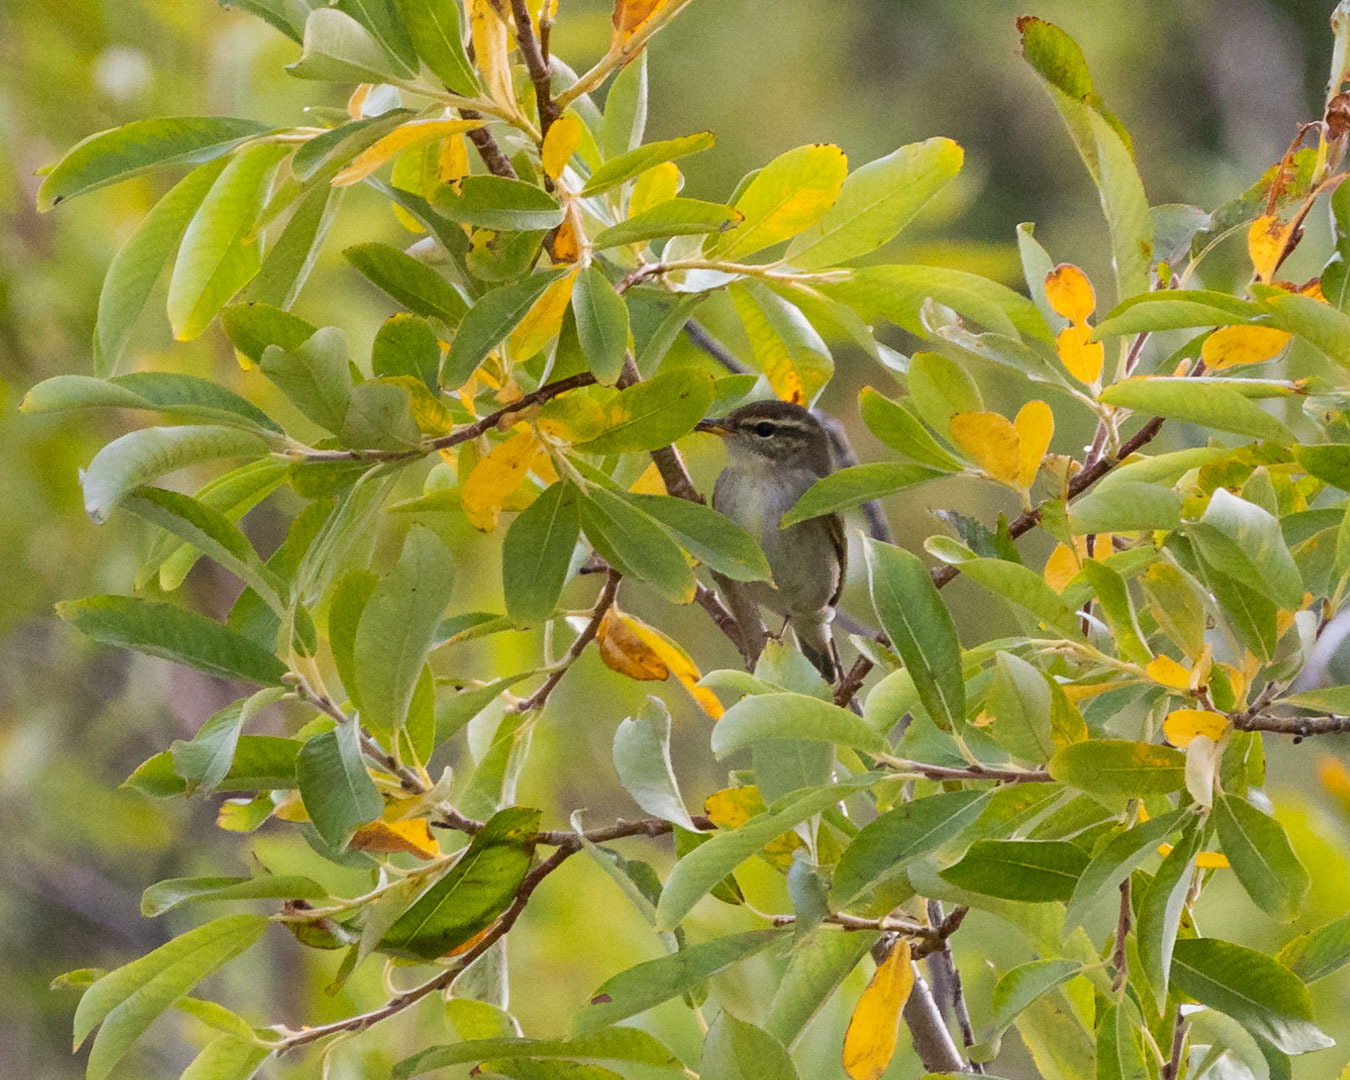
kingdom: Animalia
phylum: Chordata
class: Aves
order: Passeriformes
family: Phylloscopidae
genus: Phylloscopus
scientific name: Phylloscopus inornatus
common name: Yellow-browed warbler
